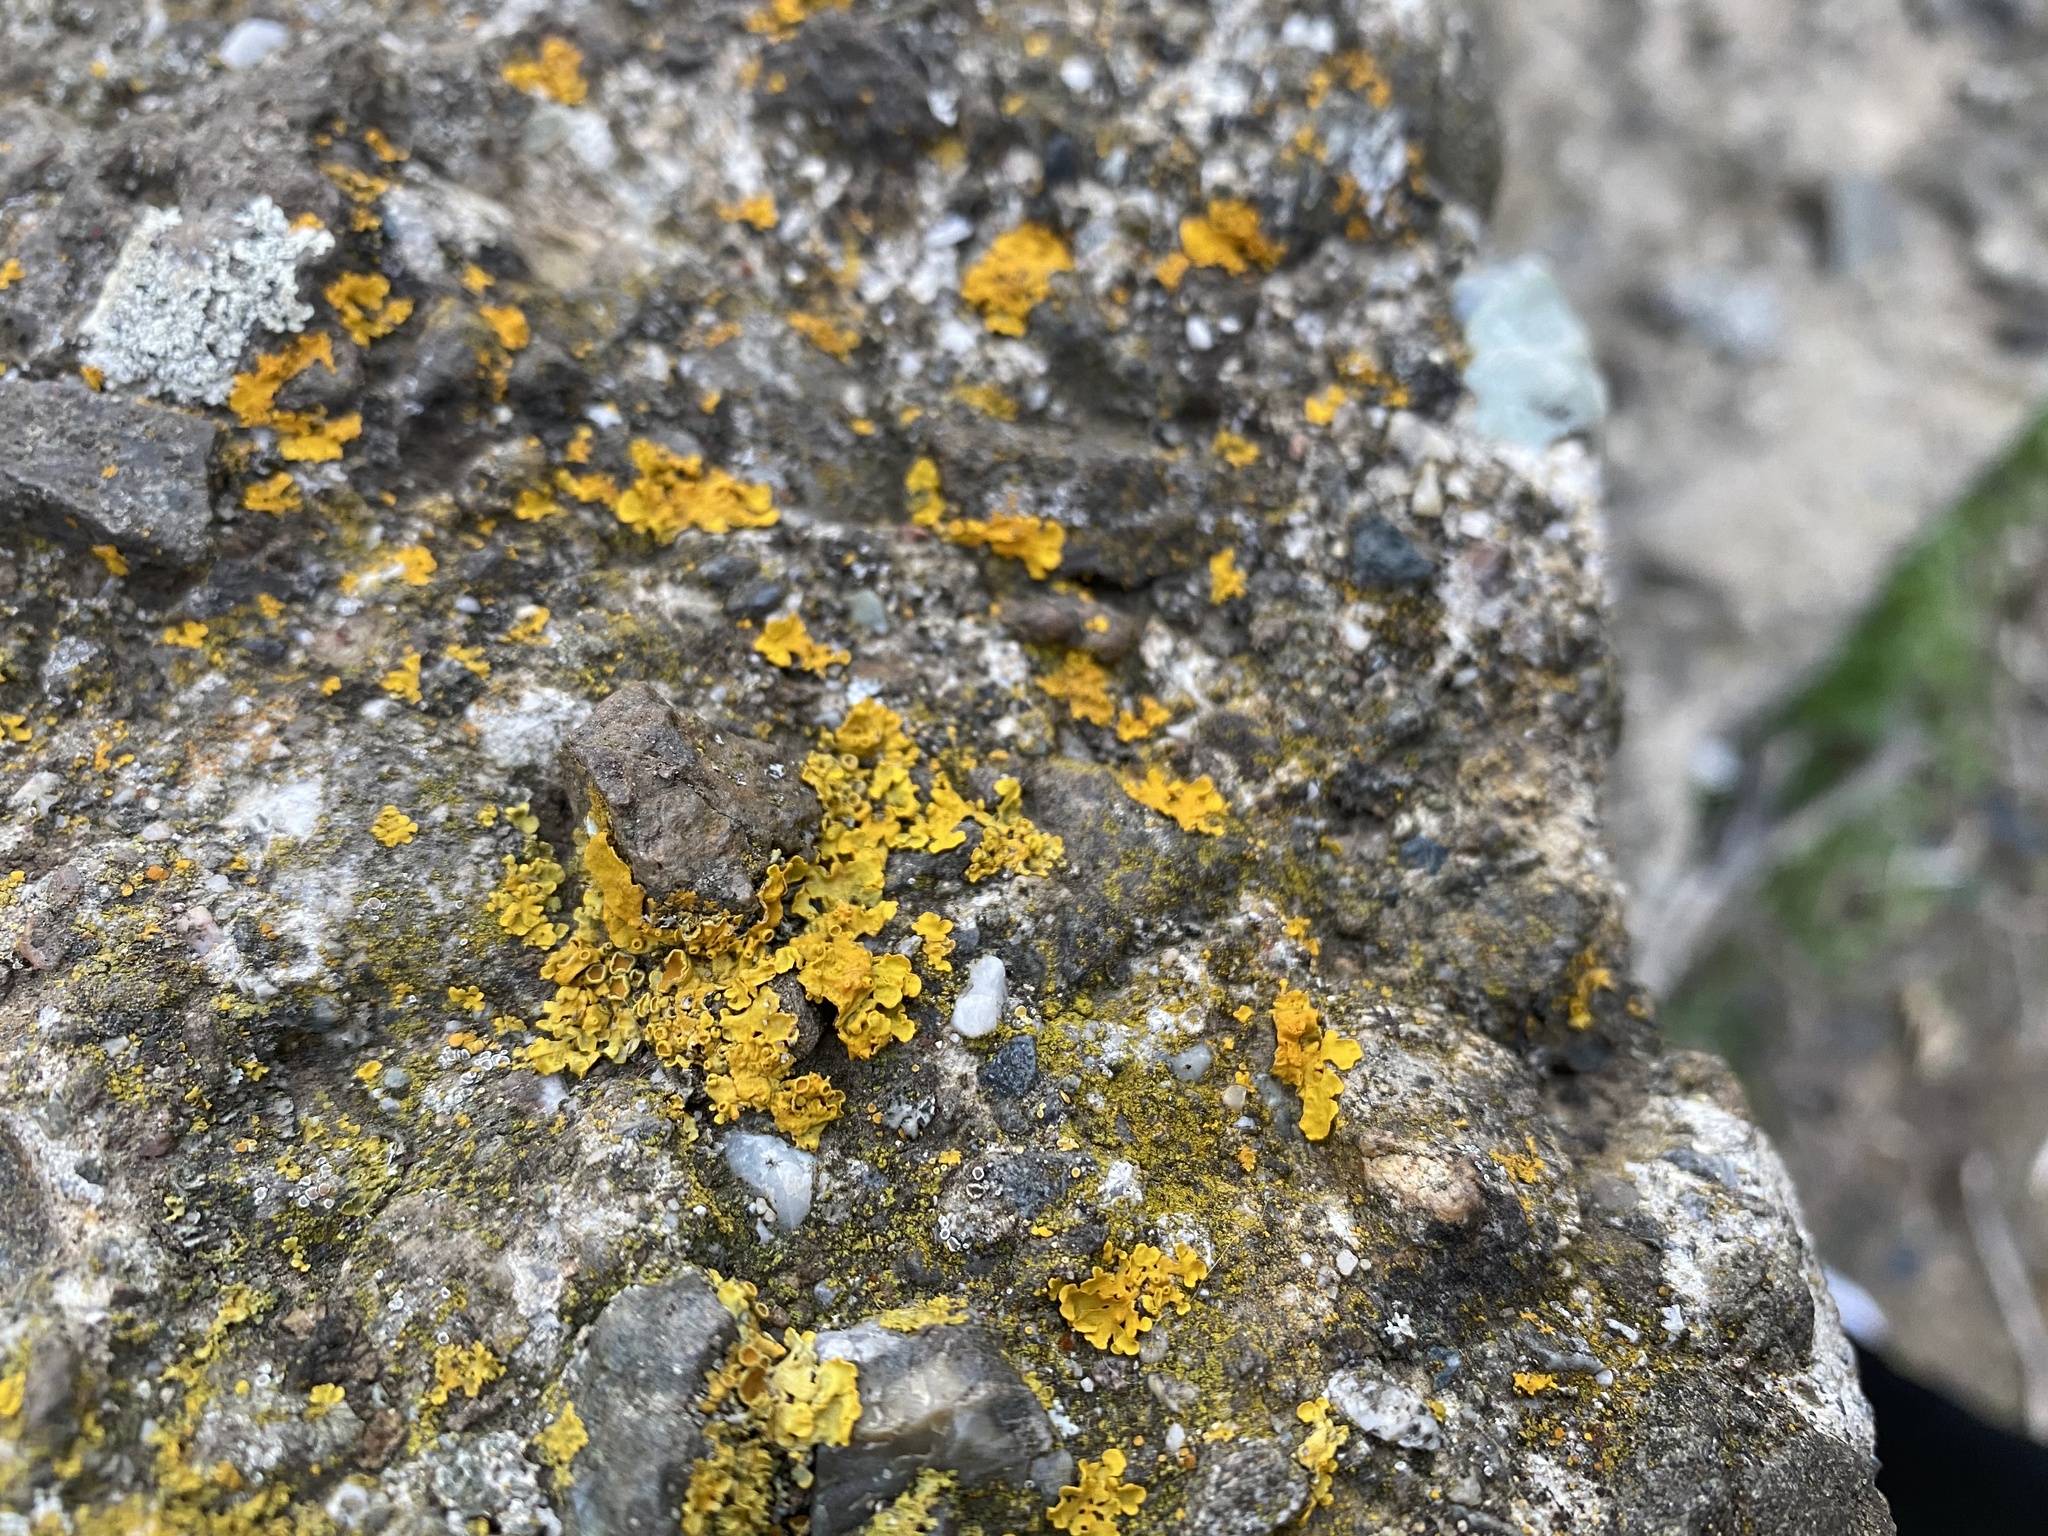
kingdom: Fungi
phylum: Ascomycota
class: Lecanoromycetes
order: Teloschistales
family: Teloschistaceae
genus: Xanthoria
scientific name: Xanthoria parietina
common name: Common orange lichen
